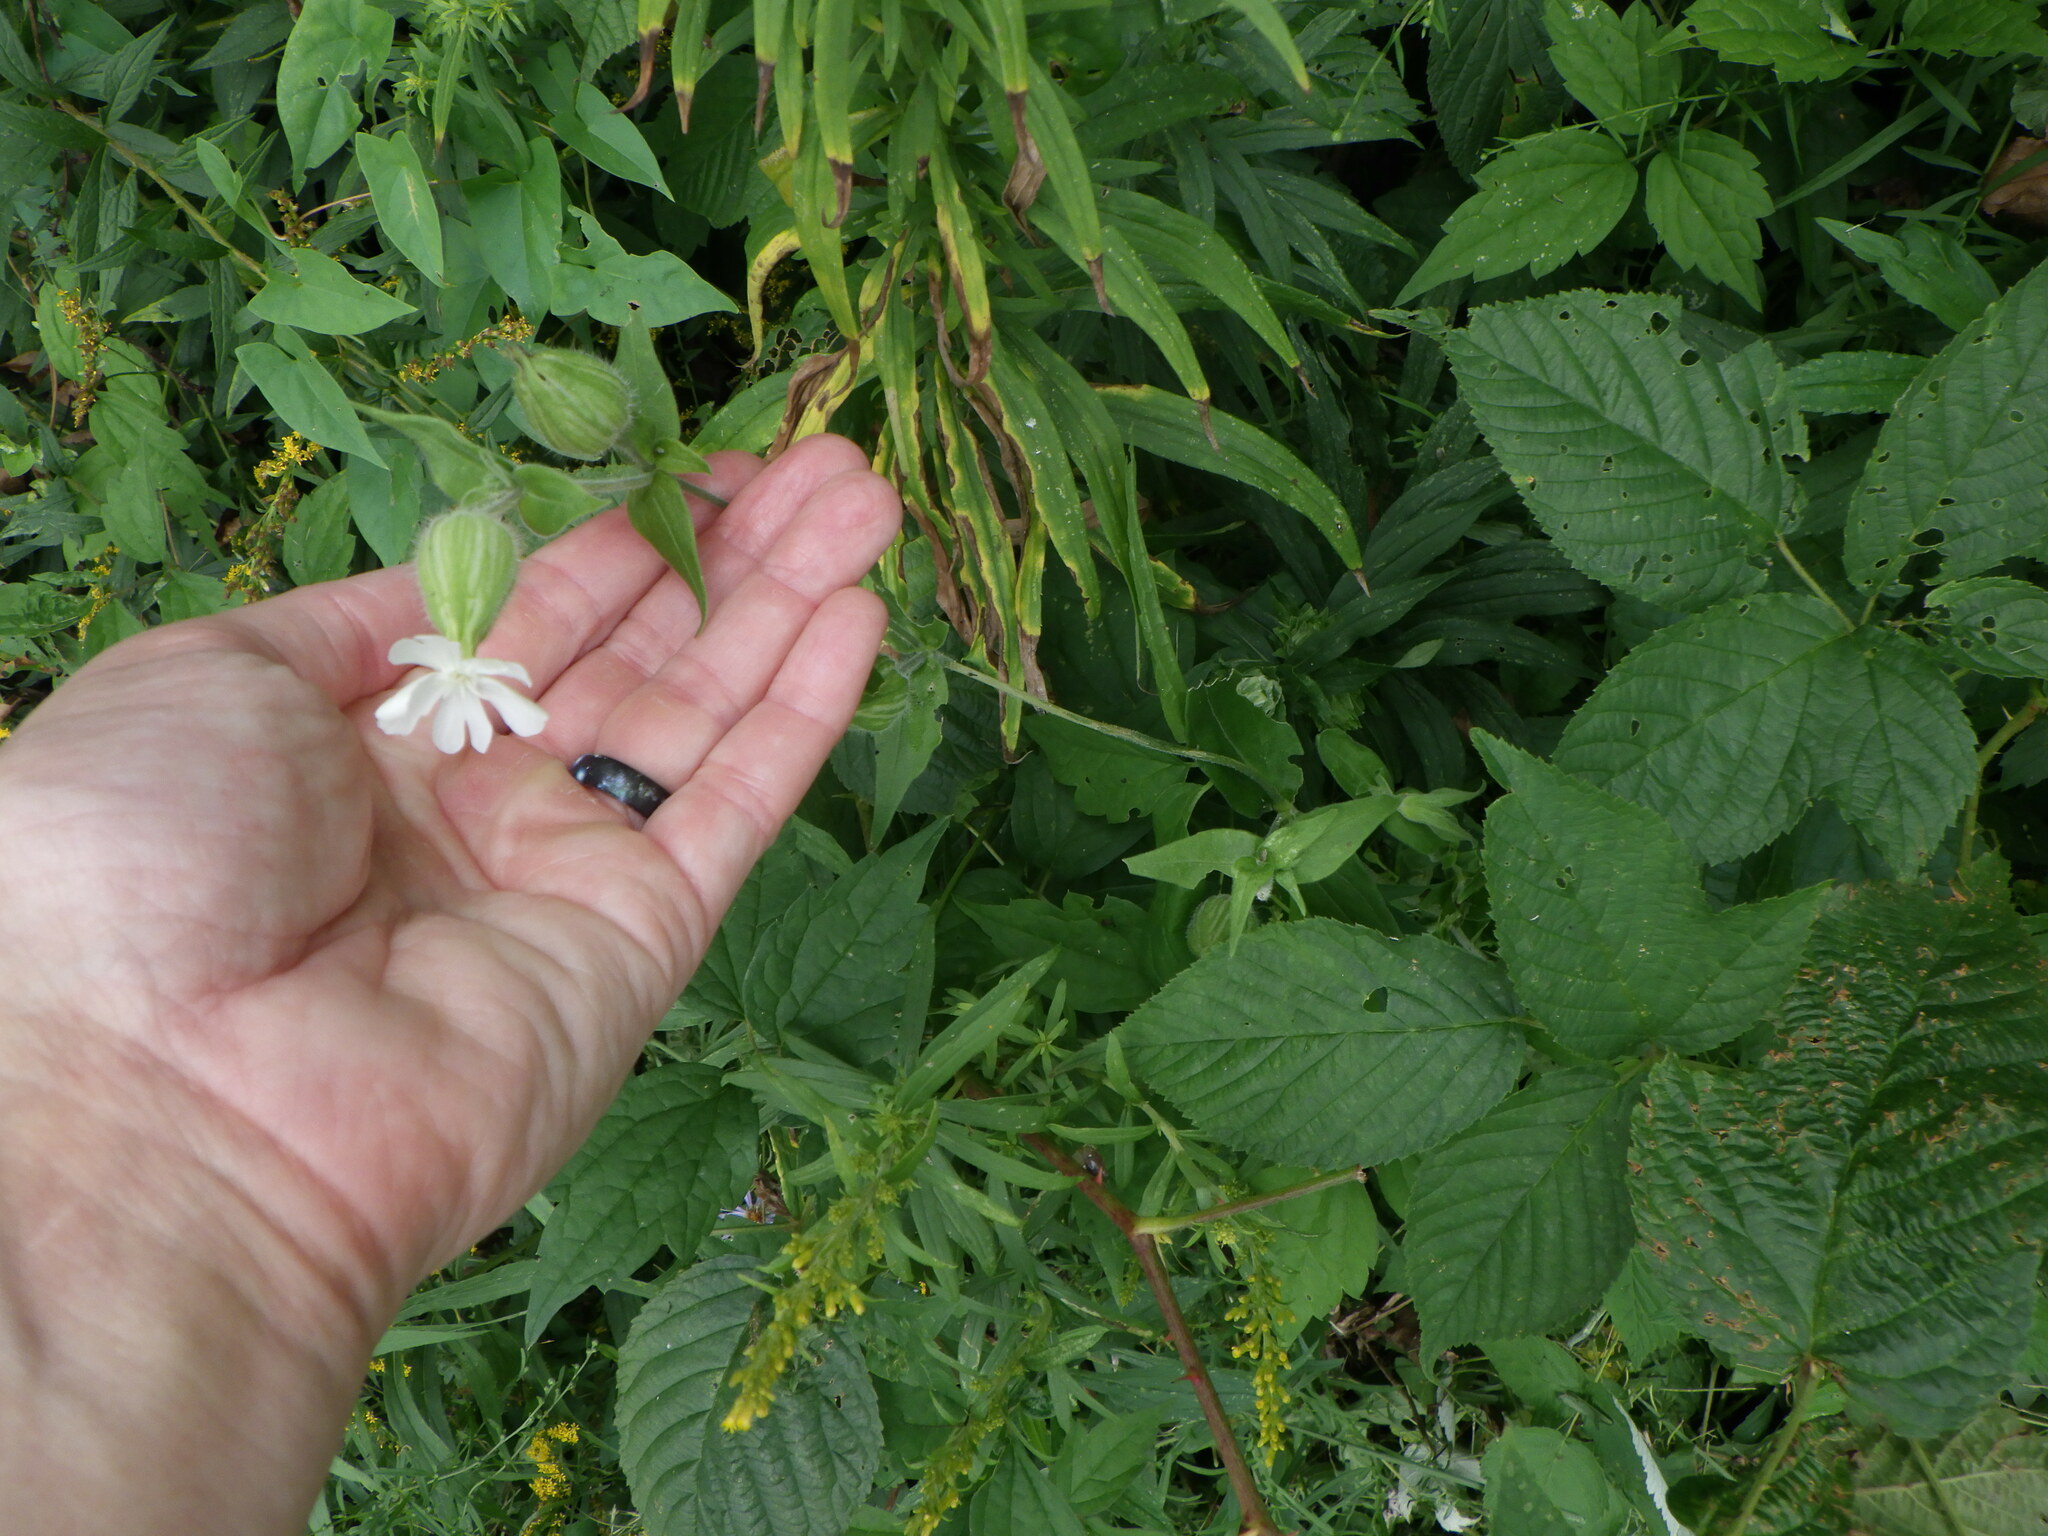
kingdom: Plantae
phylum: Tracheophyta
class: Magnoliopsida
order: Caryophyllales
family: Caryophyllaceae
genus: Silene
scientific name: Silene latifolia
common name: White campion
